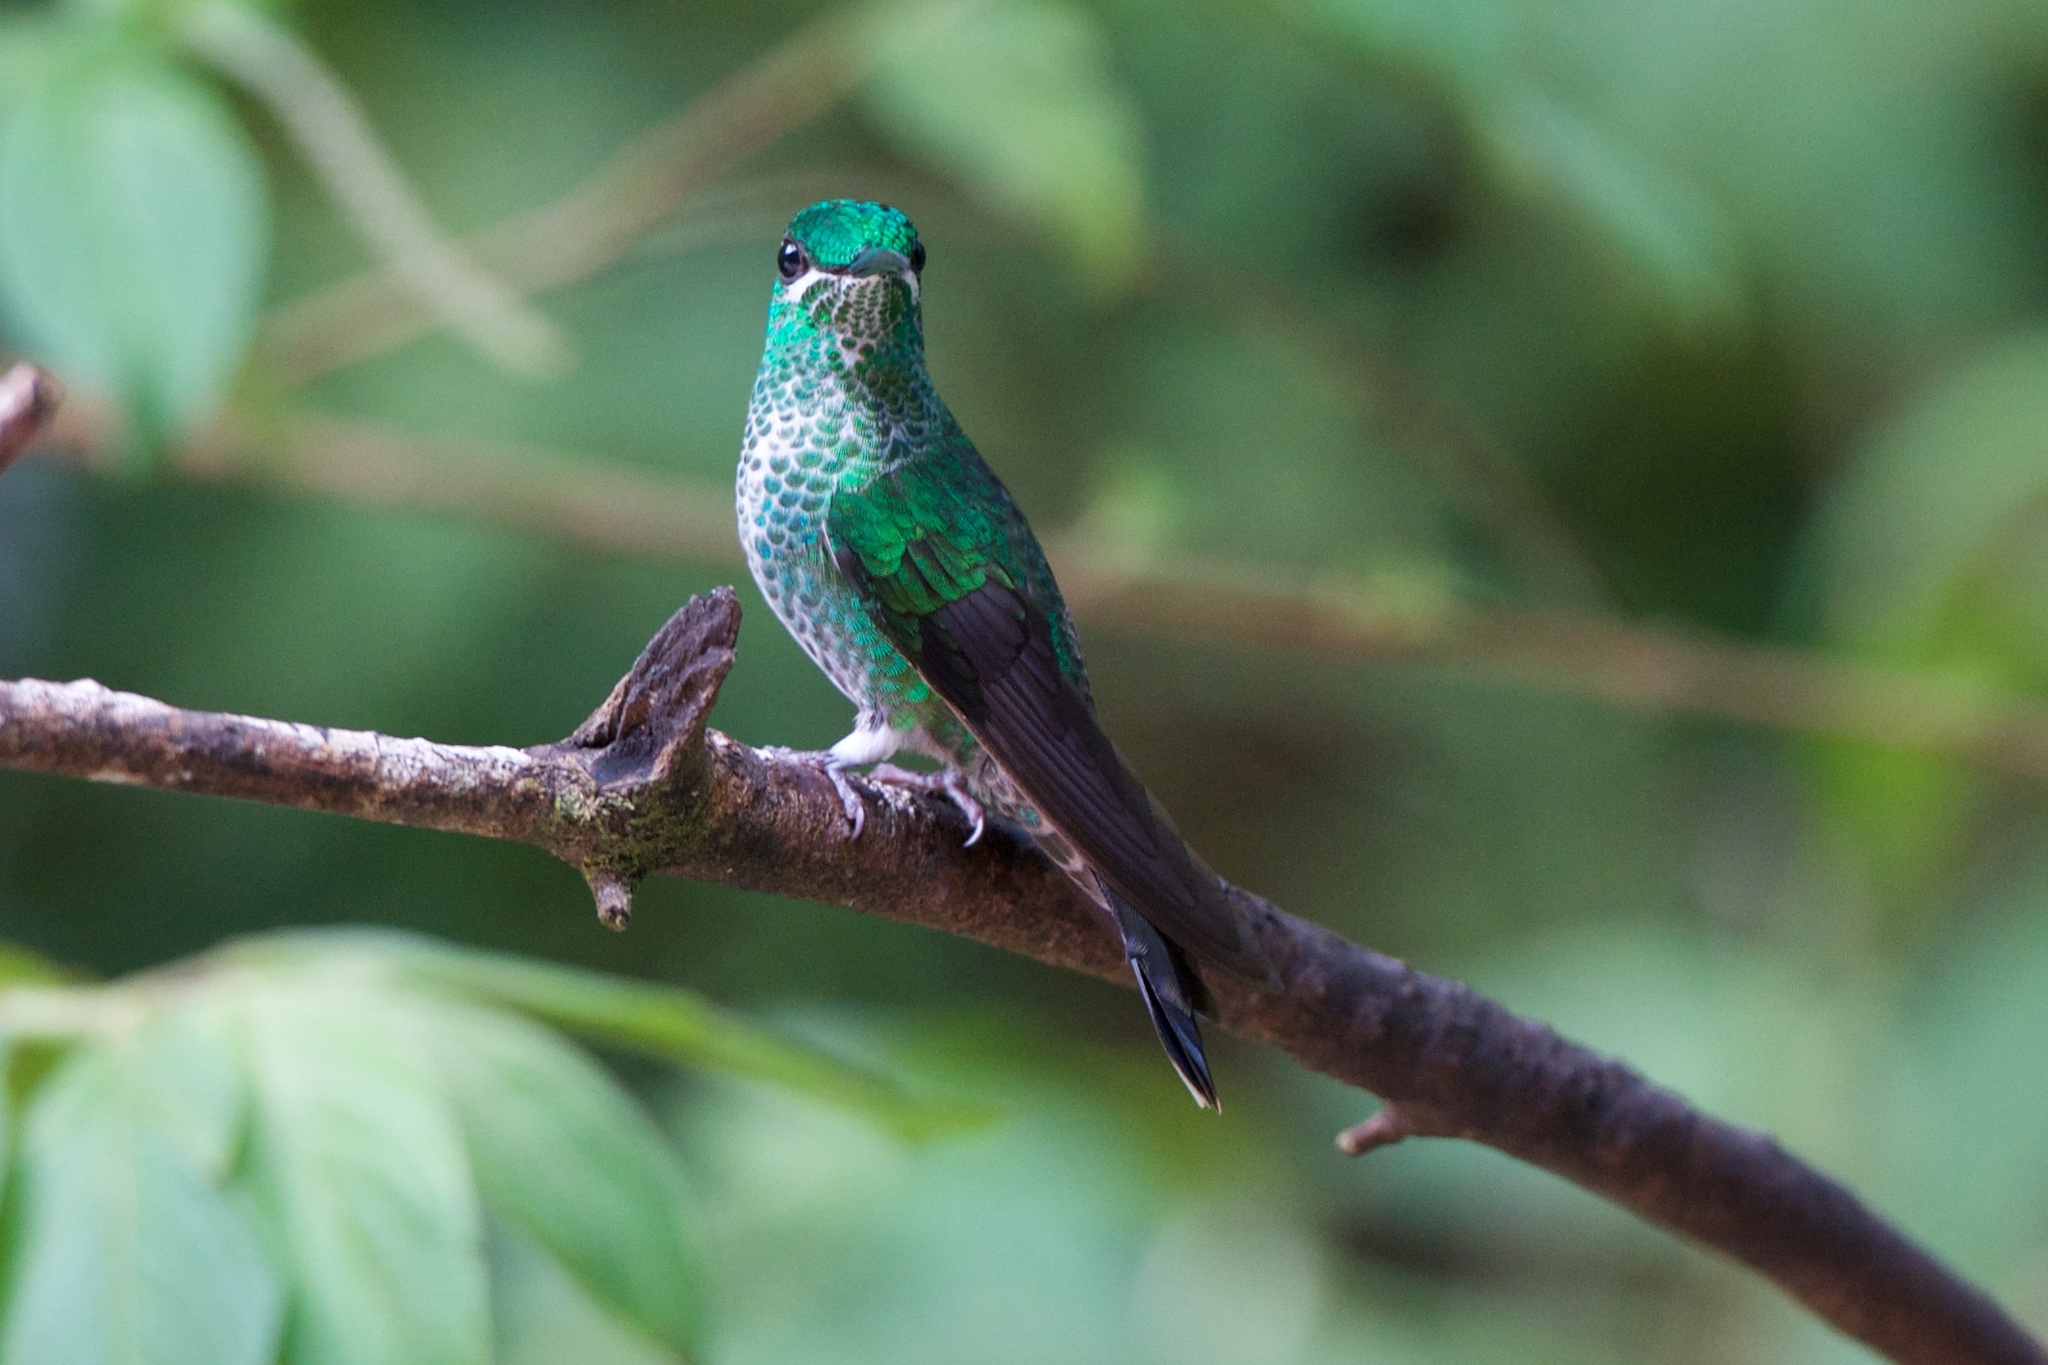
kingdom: Animalia
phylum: Chordata
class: Aves
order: Apodiformes
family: Trochilidae
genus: Heliodoxa
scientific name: Heliodoxa jacula
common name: Green-crowned brilliant
